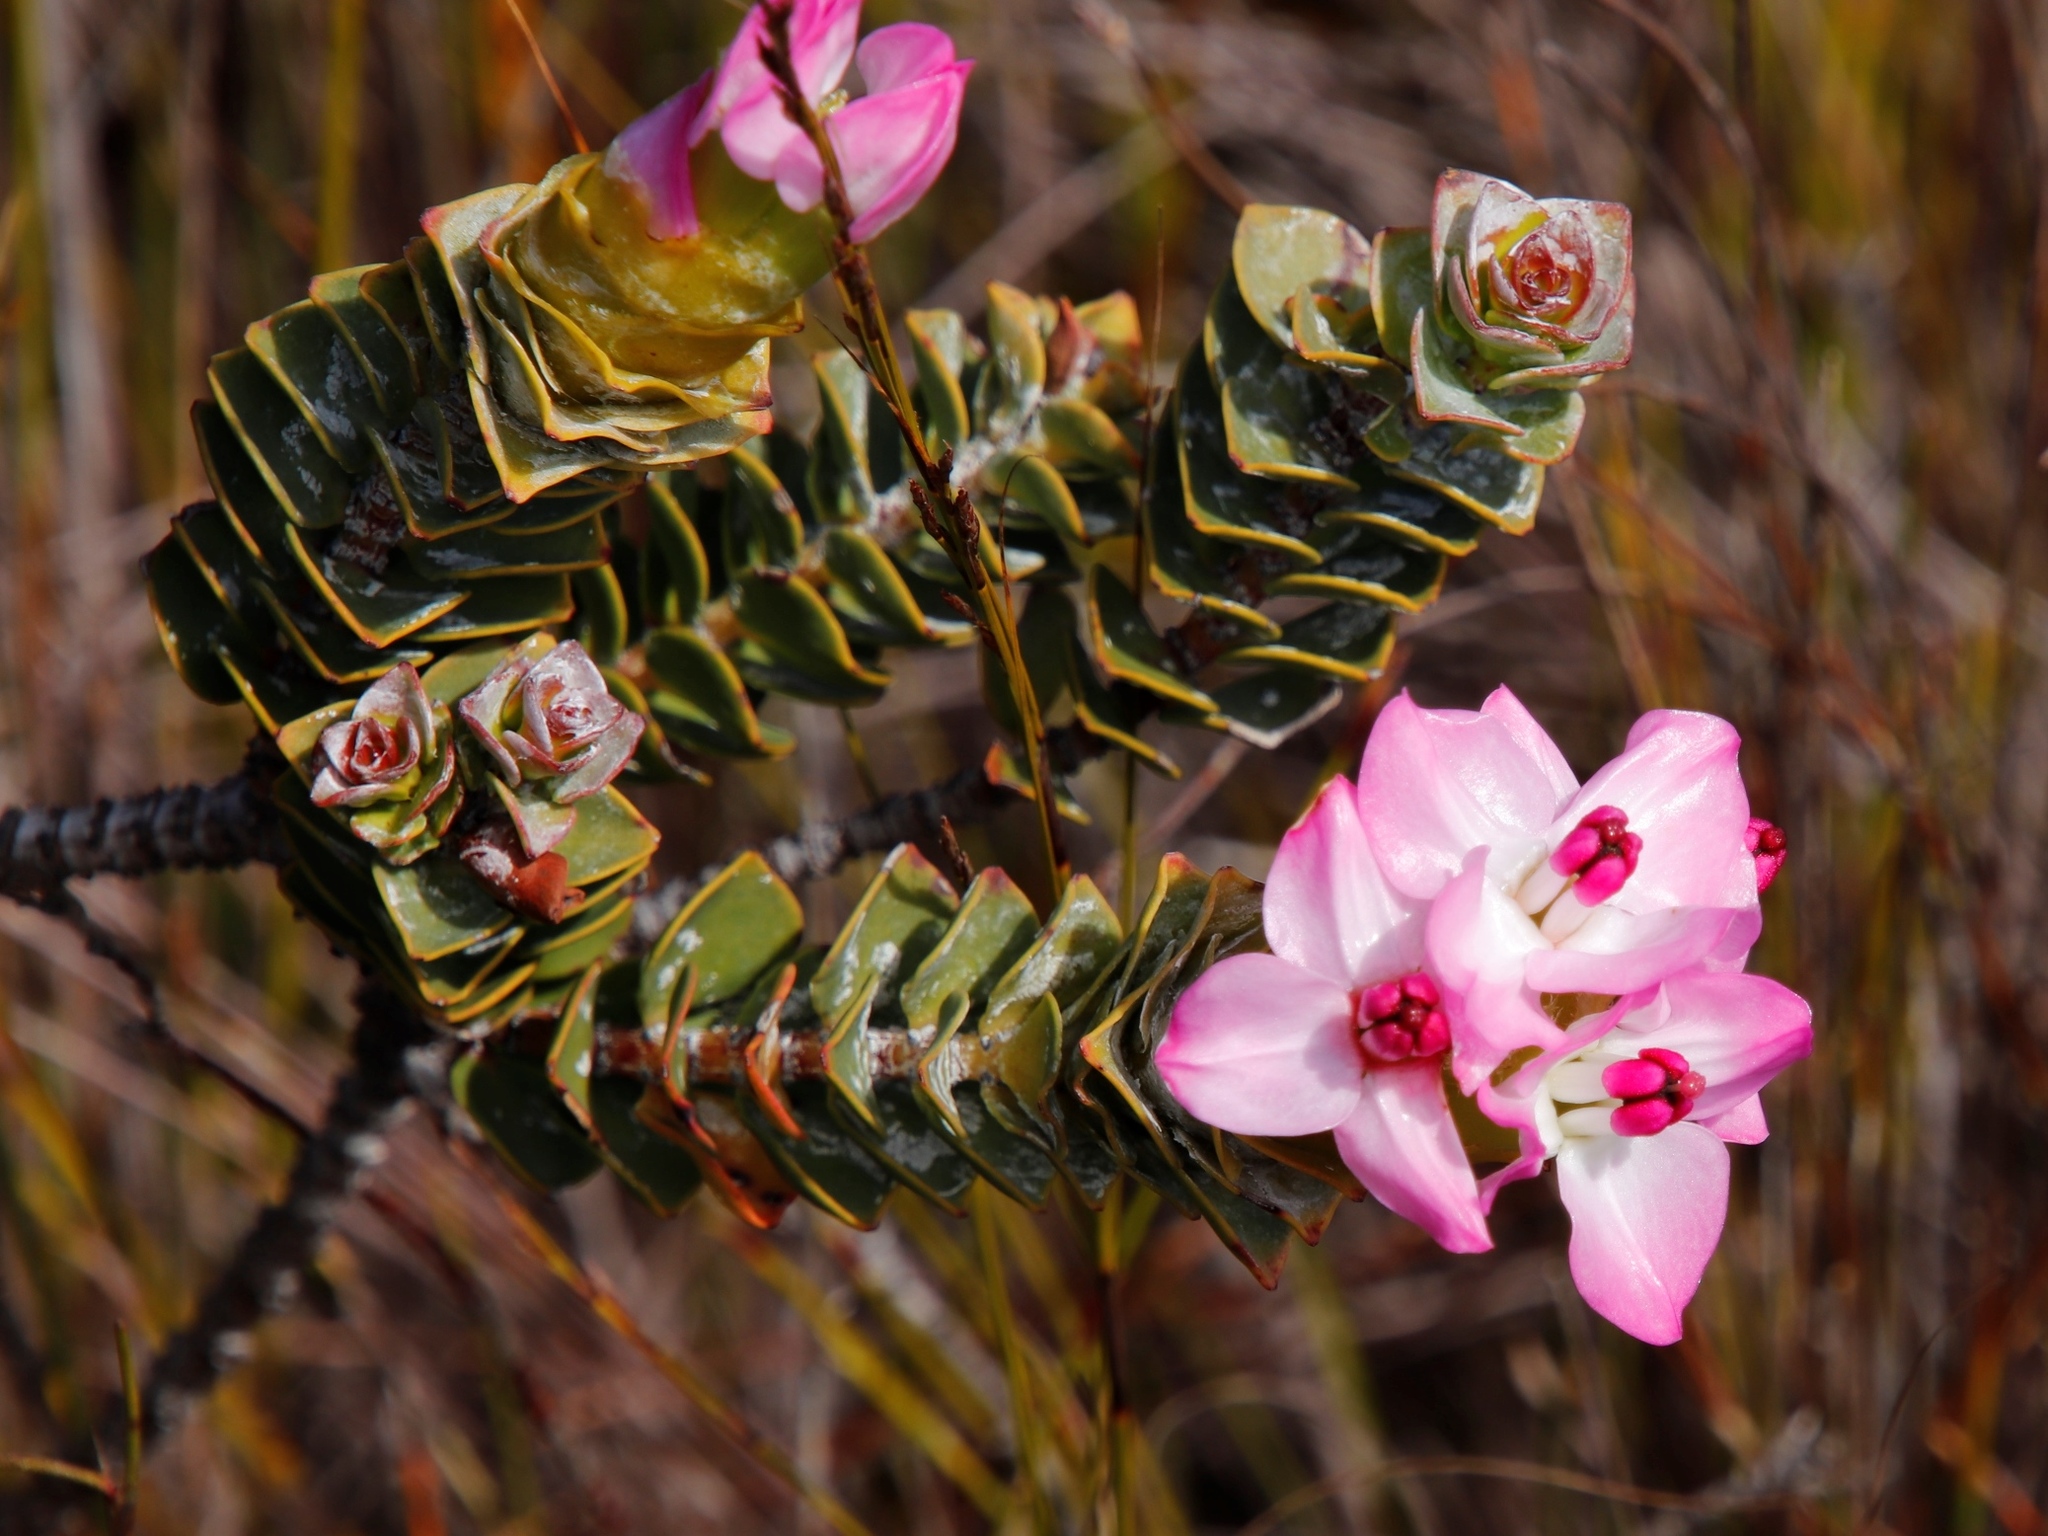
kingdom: Plantae
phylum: Tracheophyta
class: Magnoliopsida
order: Myrtales
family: Penaeaceae
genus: Saltera
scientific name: Saltera sarcocolla
